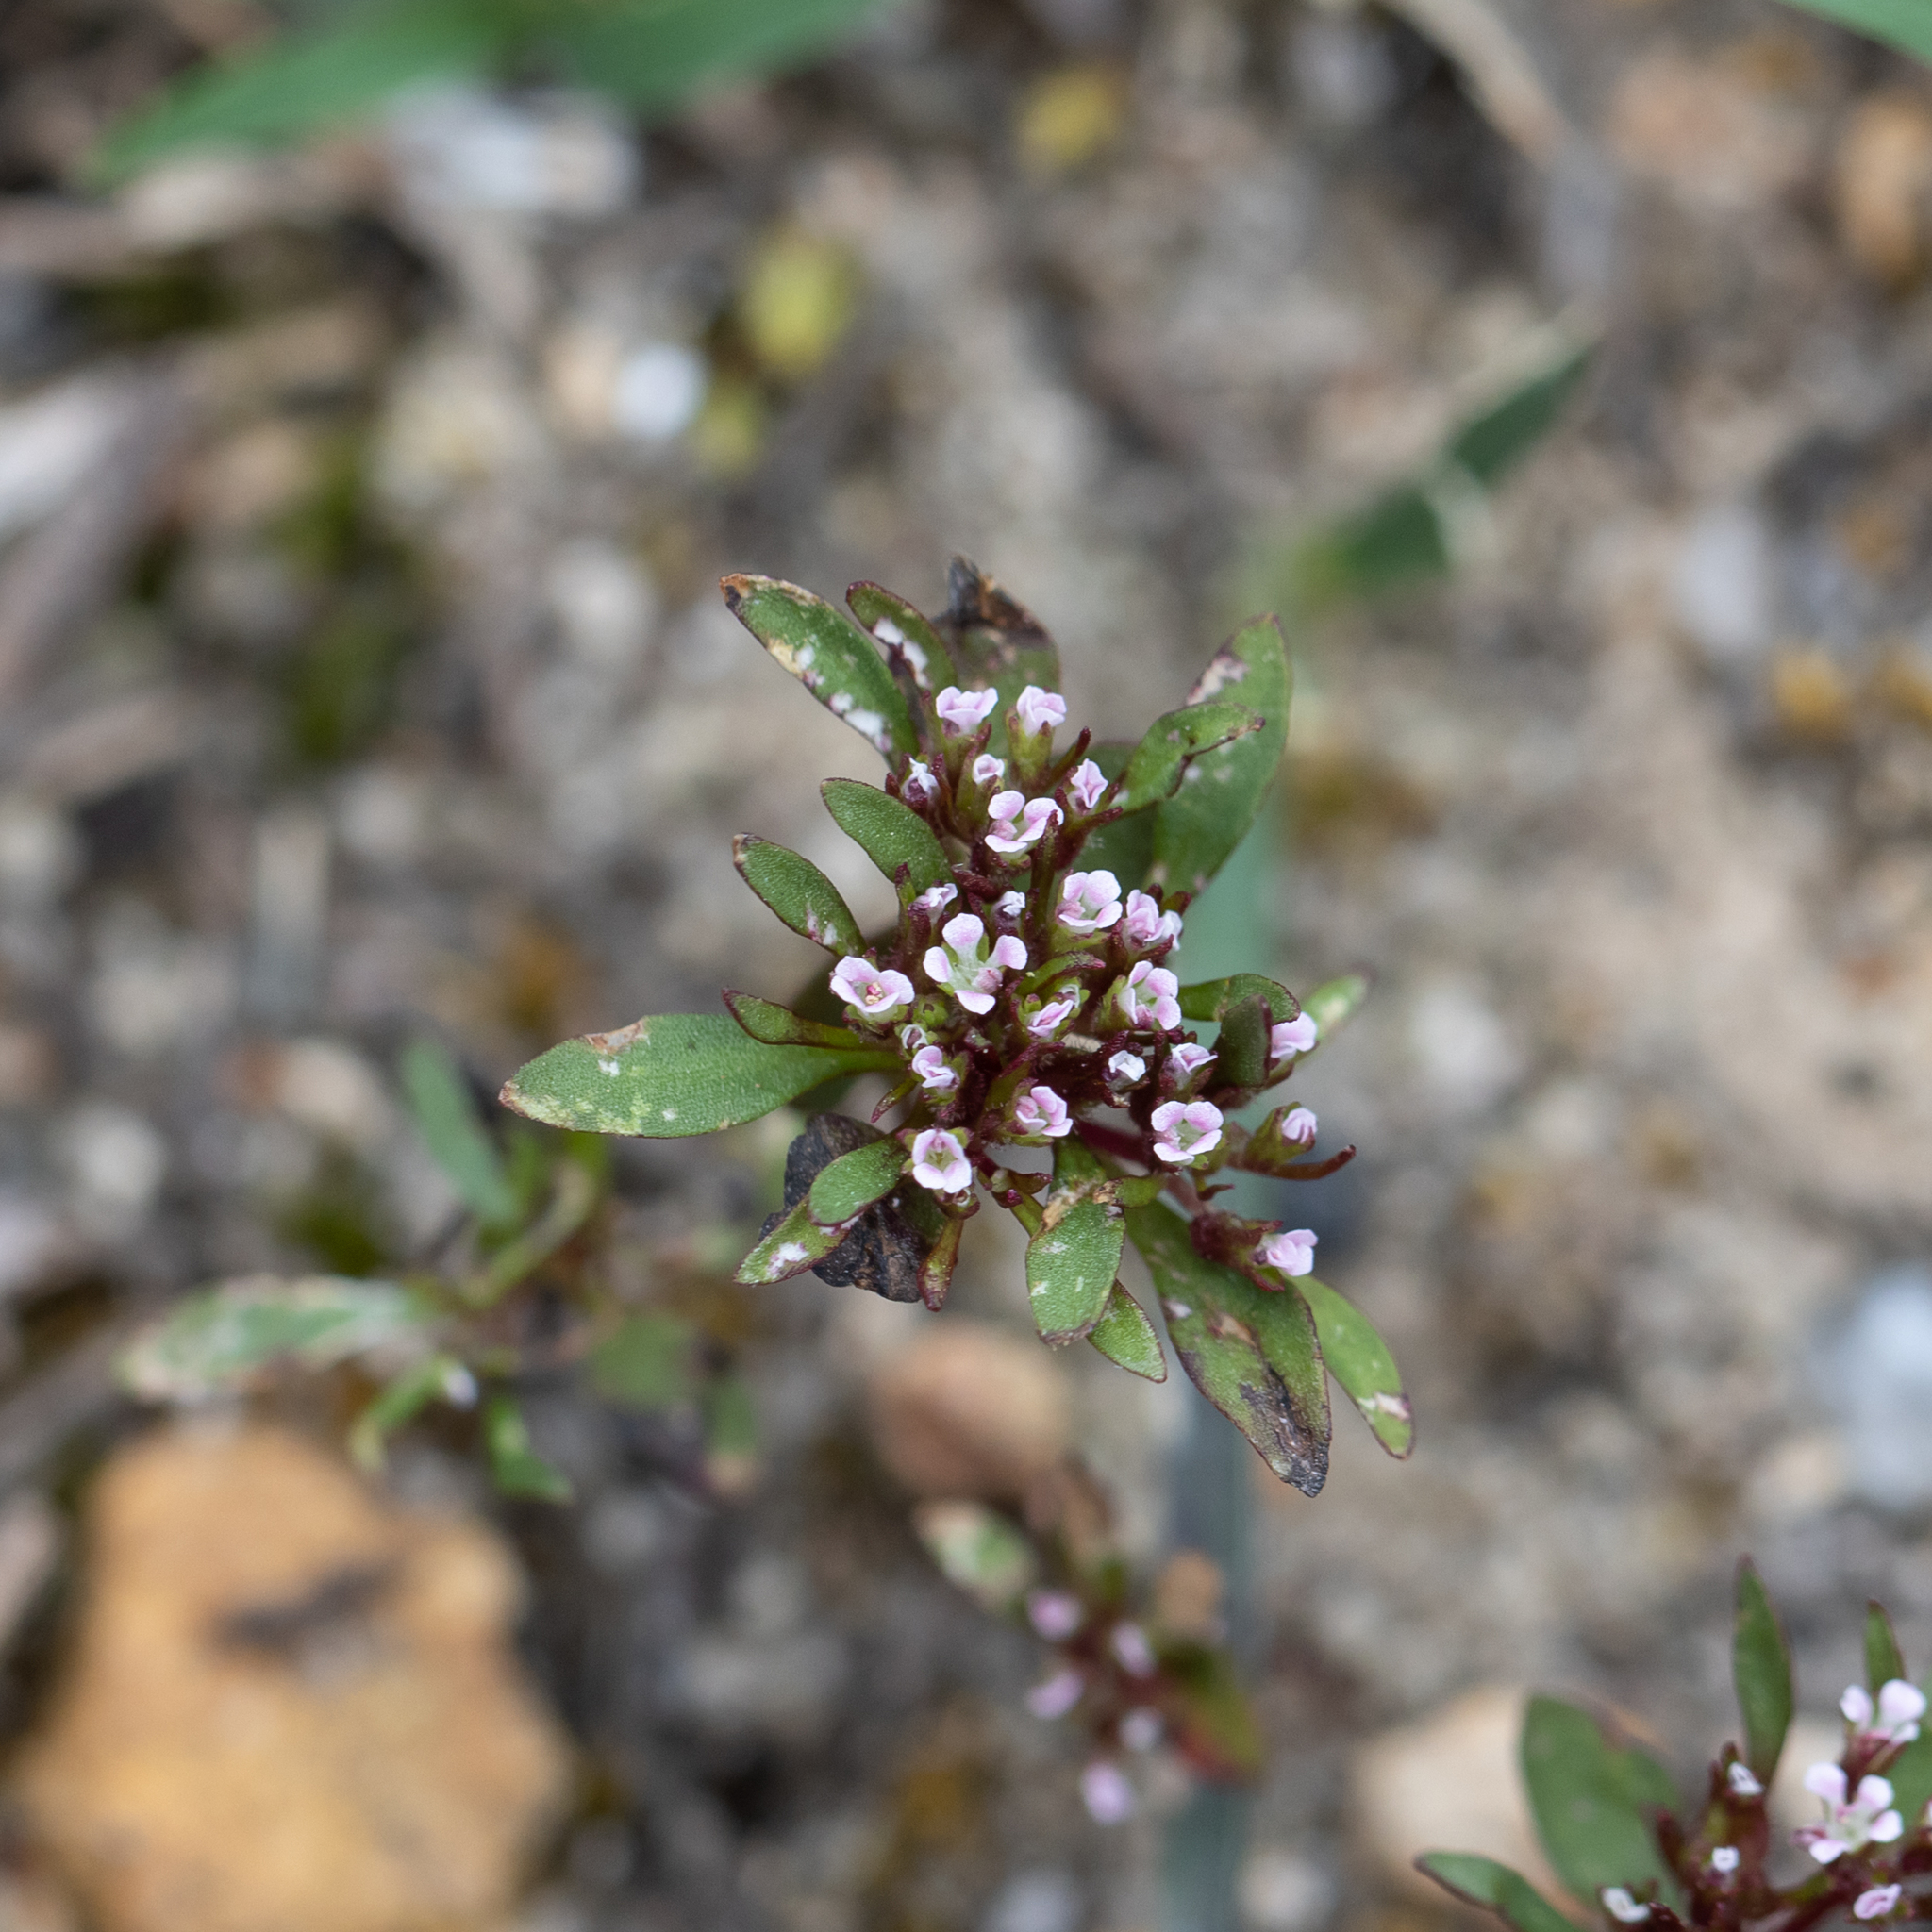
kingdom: Plantae
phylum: Tracheophyta
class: Magnoliopsida
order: Asterales
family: Stylidiaceae
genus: Levenhookia
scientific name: Levenhookia pusilla
